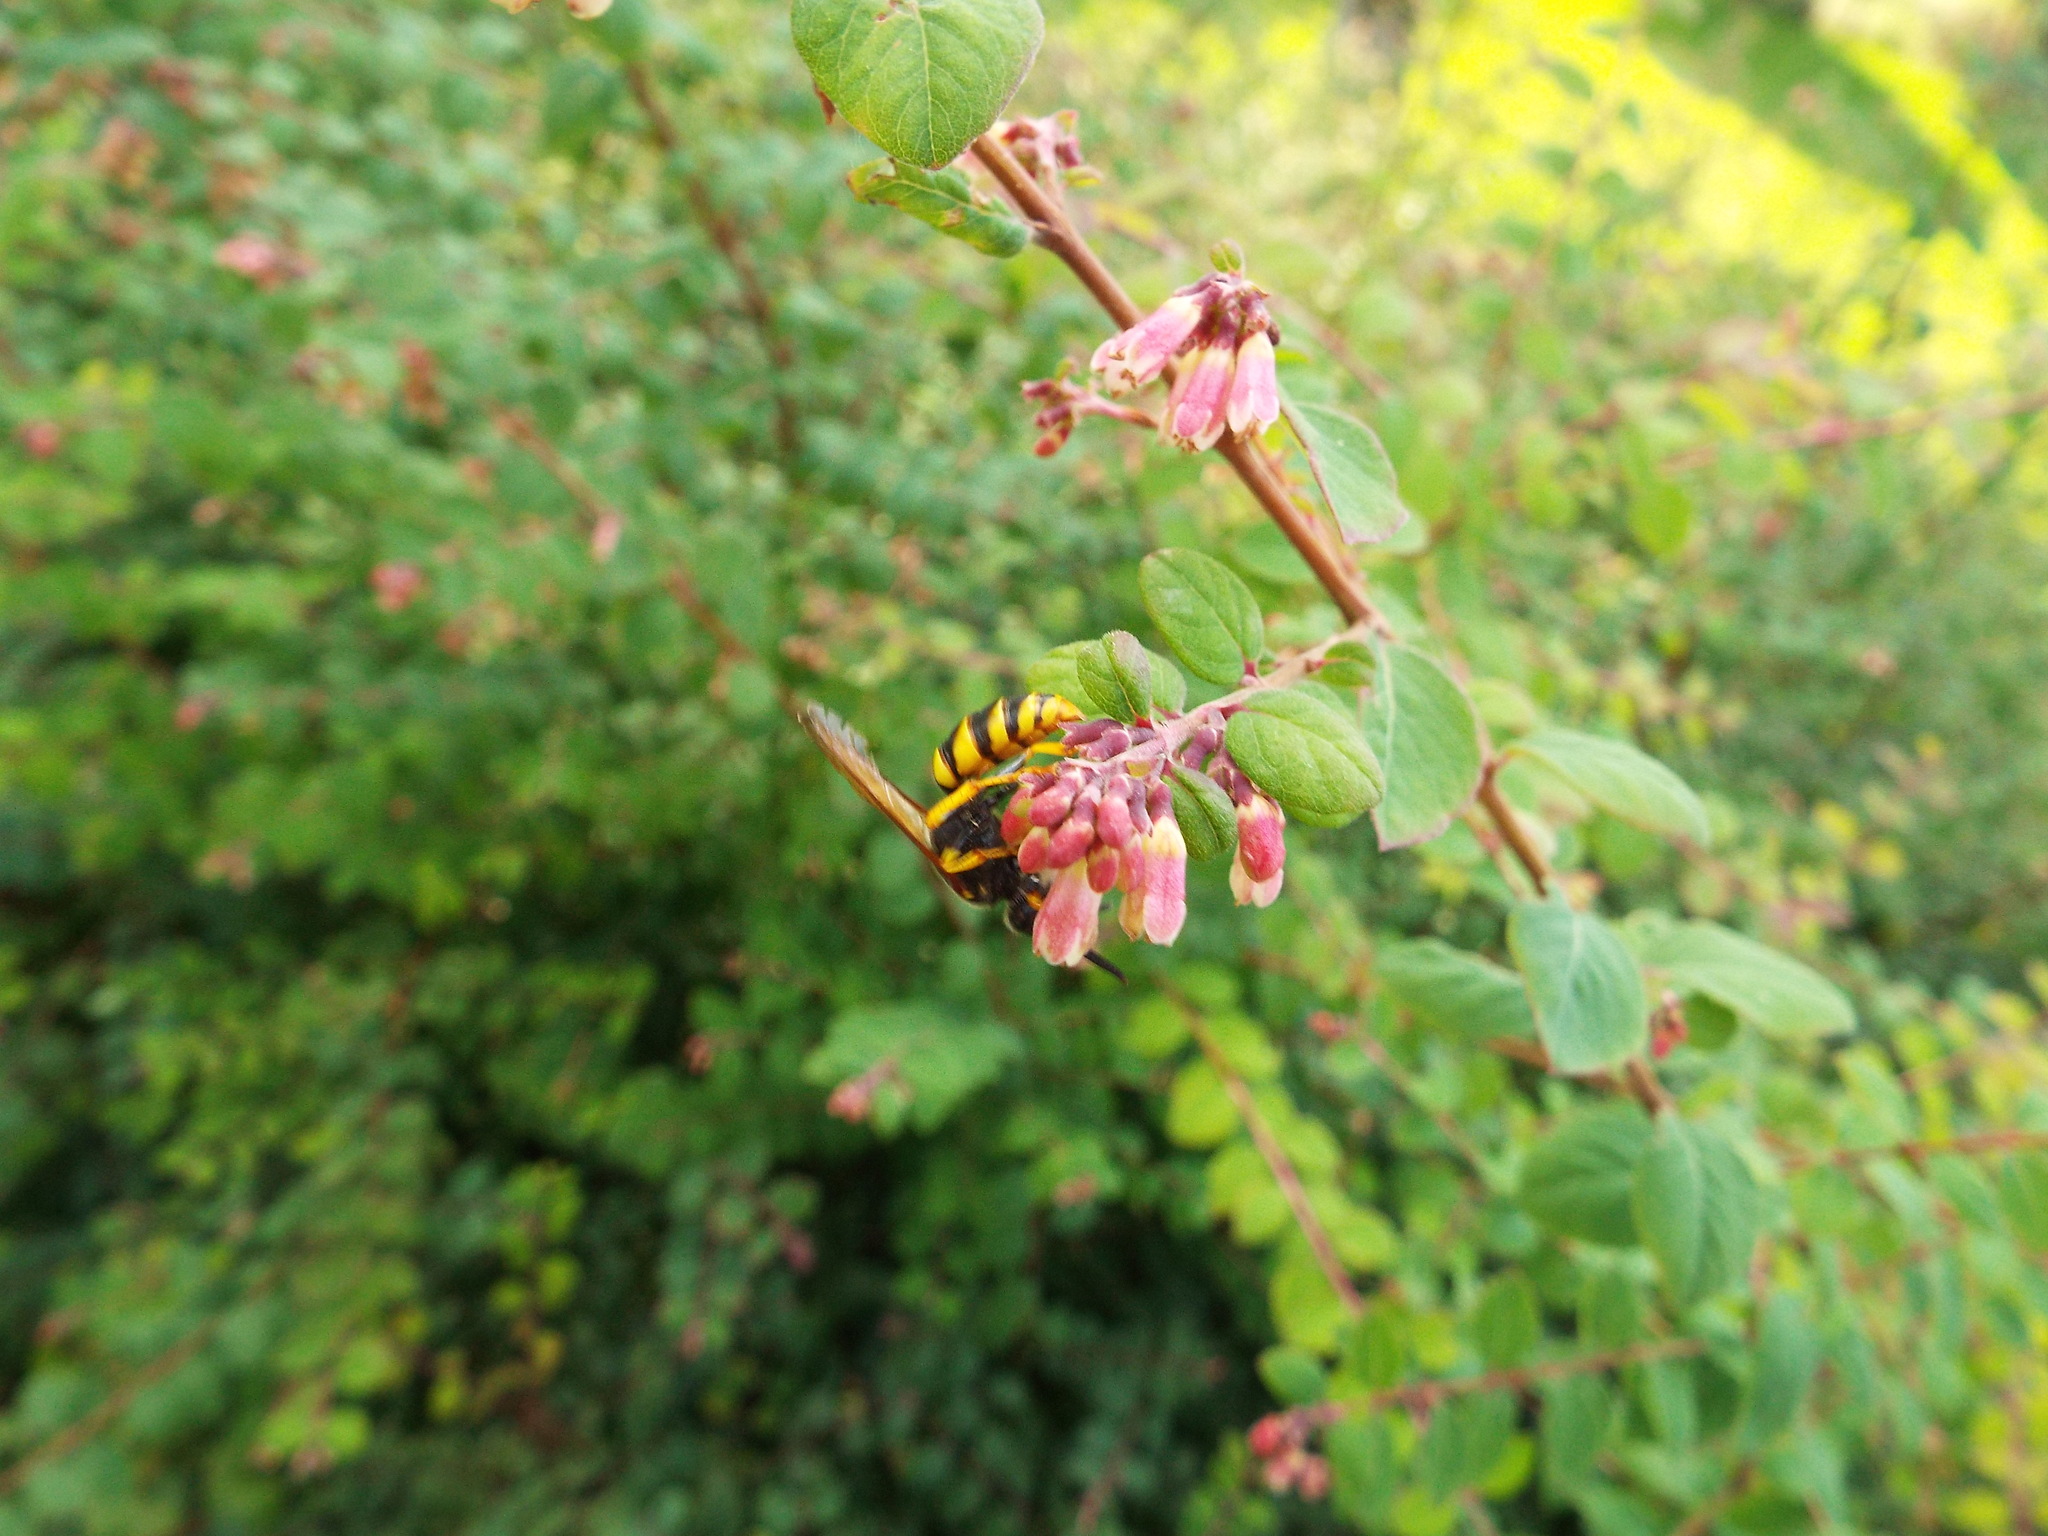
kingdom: Animalia
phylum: Arthropoda
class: Insecta
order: Hymenoptera
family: Crabronidae
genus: Philanthus
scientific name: Philanthus triangulum
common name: Bee wolf
